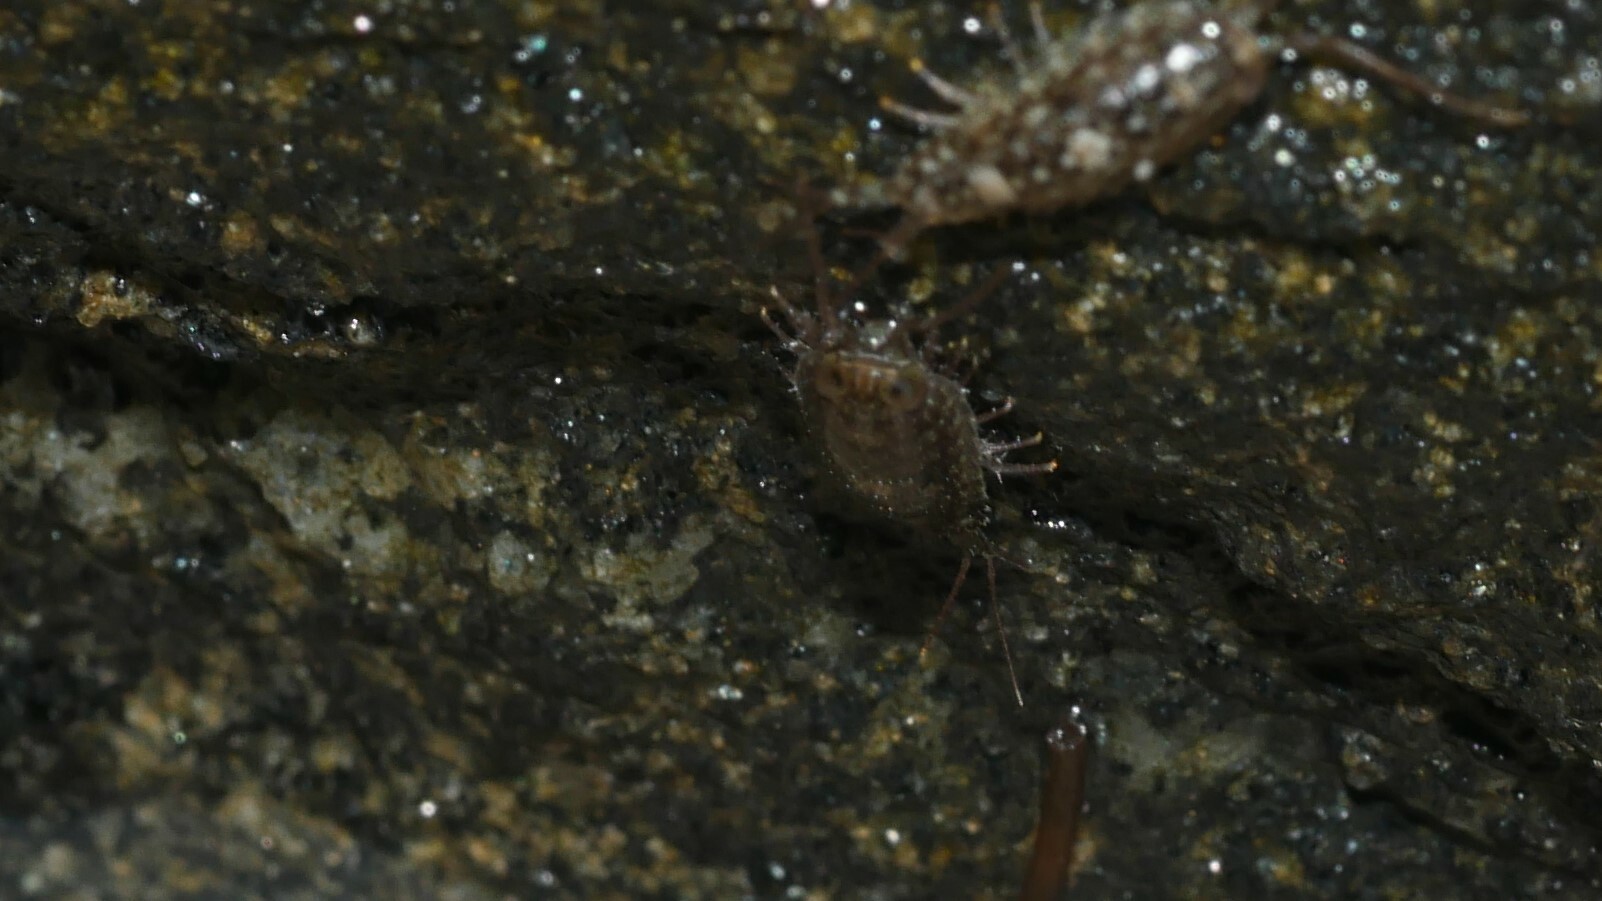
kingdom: Animalia
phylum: Arthropoda
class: Malacostraca
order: Isopoda
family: Ligiidae
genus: Ligia
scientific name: Ligia exotica
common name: Wharf roach
